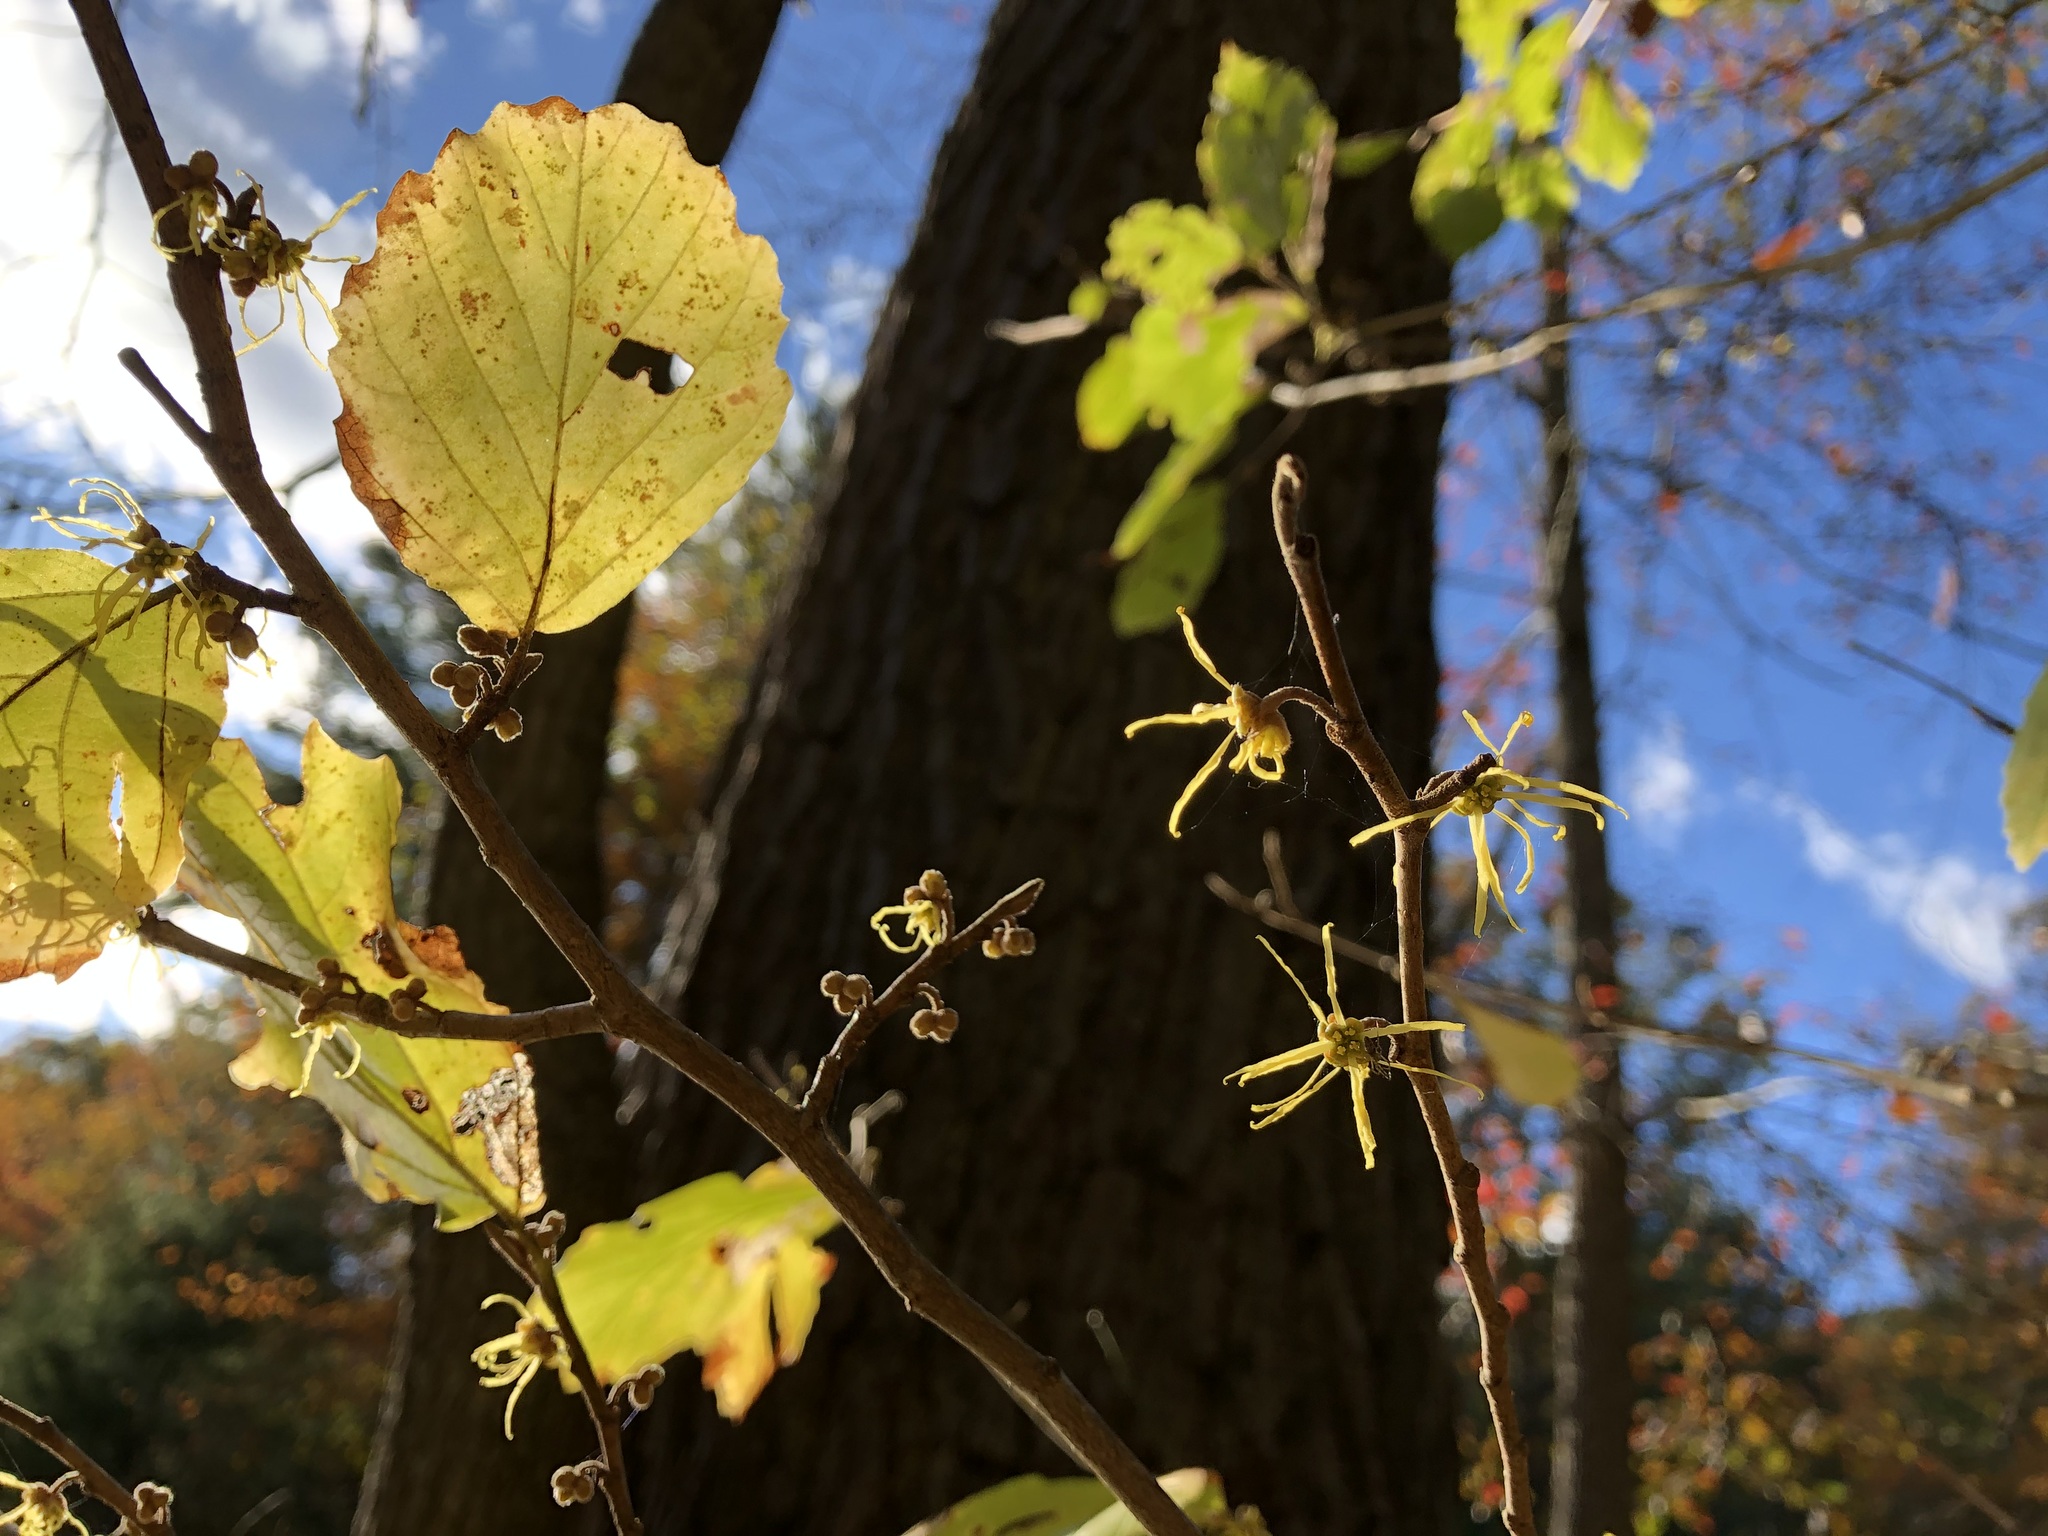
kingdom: Plantae
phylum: Tracheophyta
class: Magnoliopsida
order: Saxifragales
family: Hamamelidaceae
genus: Hamamelis
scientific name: Hamamelis virginiana
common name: Witch-hazel
